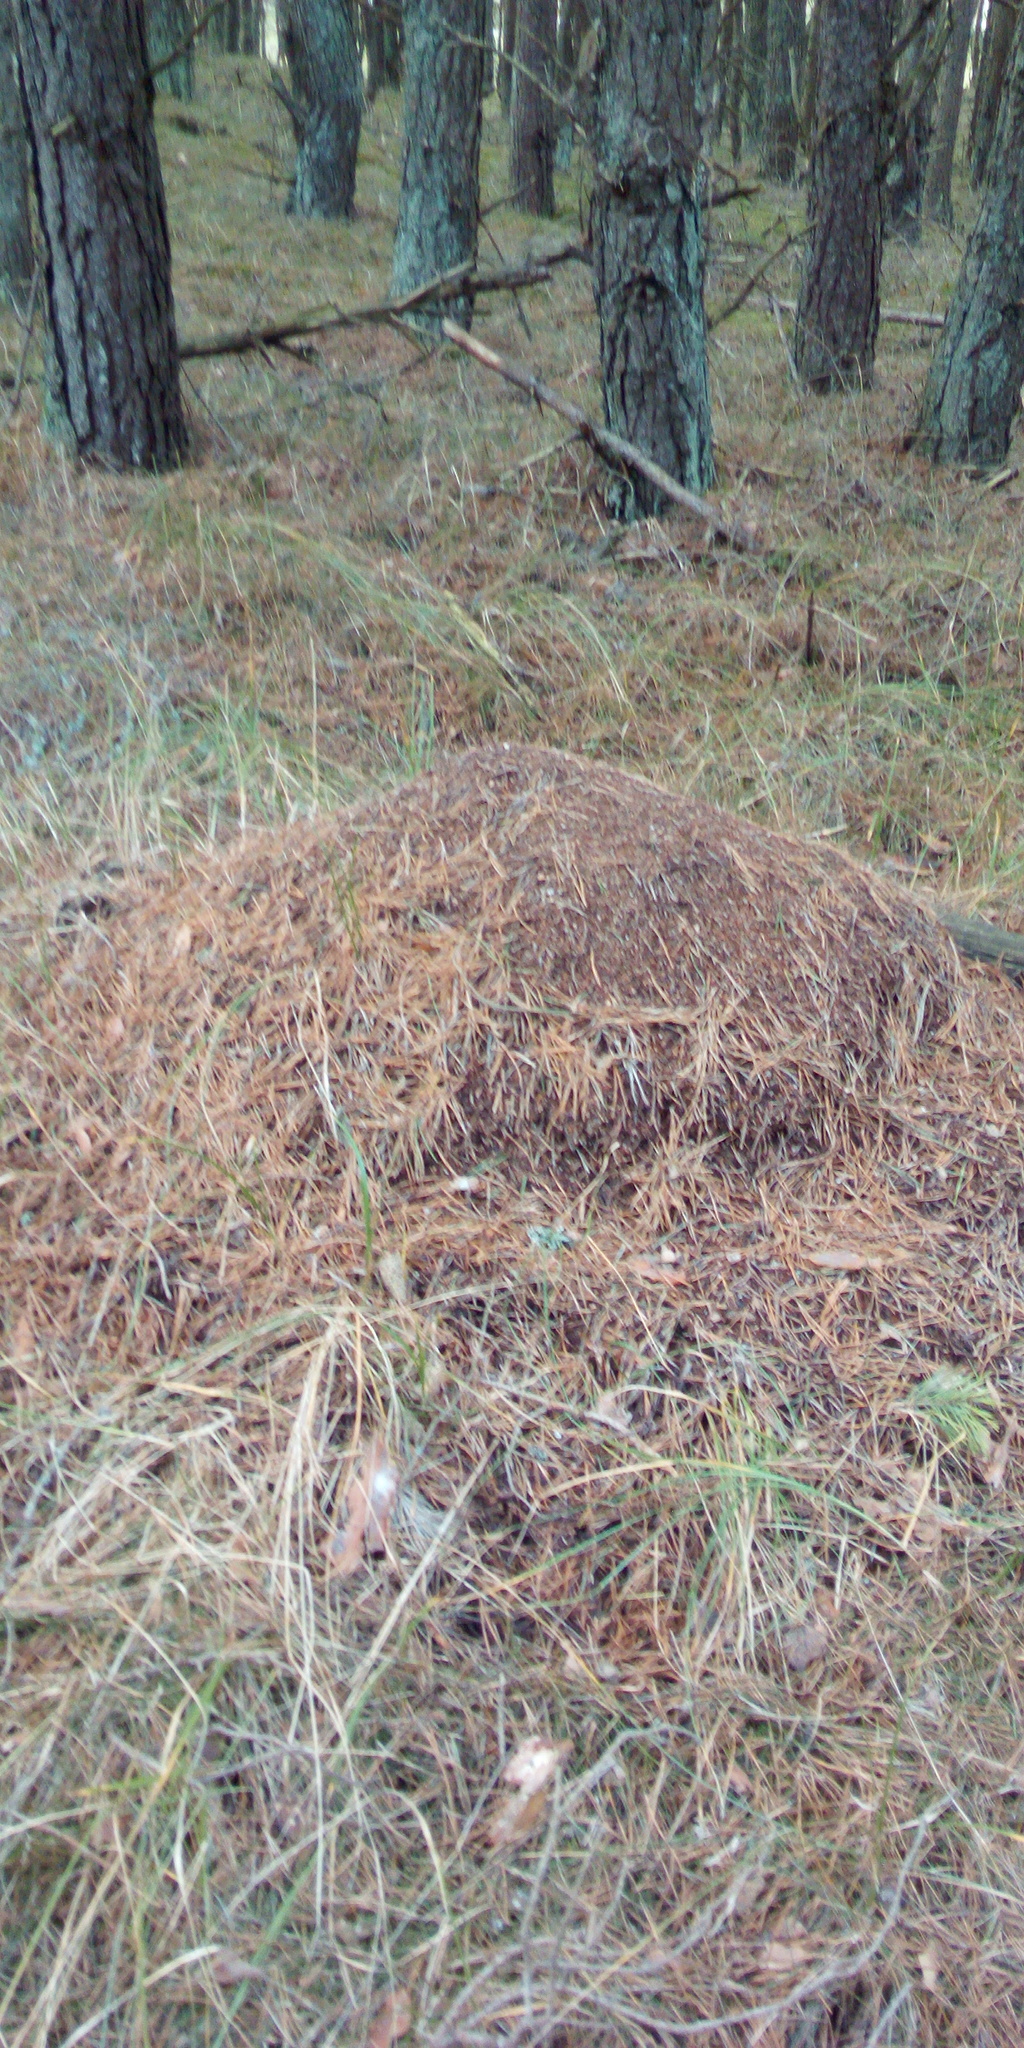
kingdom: Animalia
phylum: Arthropoda
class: Insecta
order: Hymenoptera
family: Formicidae
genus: Formica
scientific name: Formica pratensis
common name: European red wood ant
